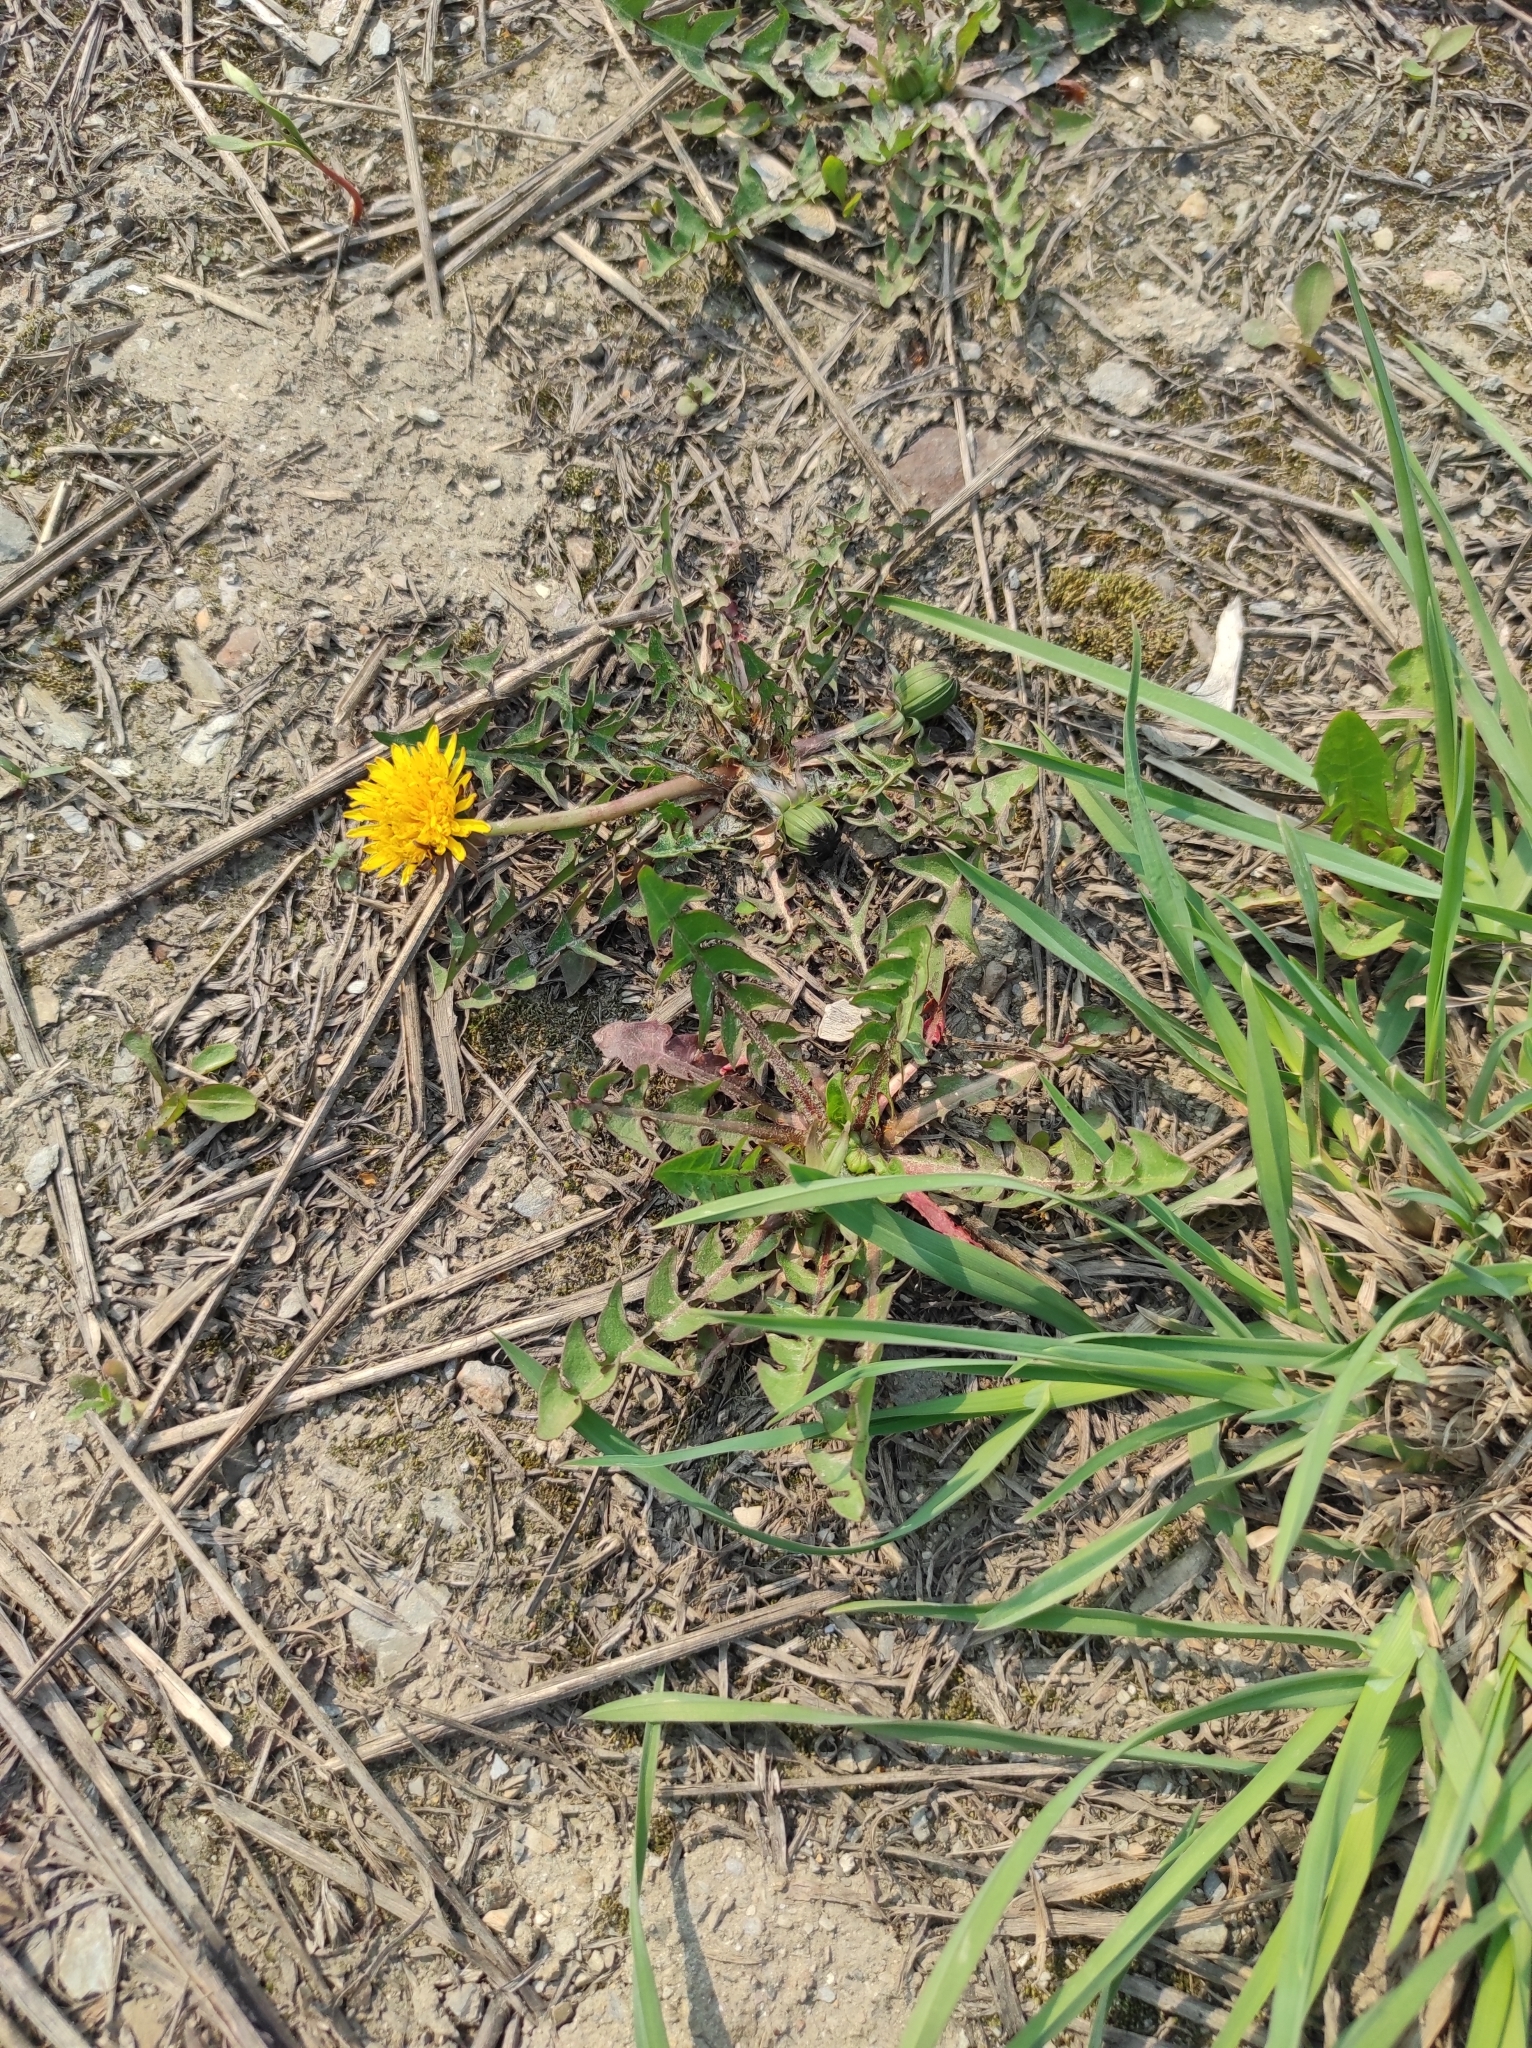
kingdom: Plantae
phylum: Tracheophyta
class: Magnoliopsida
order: Asterales
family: Asteraceae
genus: Taraxacum
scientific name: Taraxacum officinale
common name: Common dandelion
